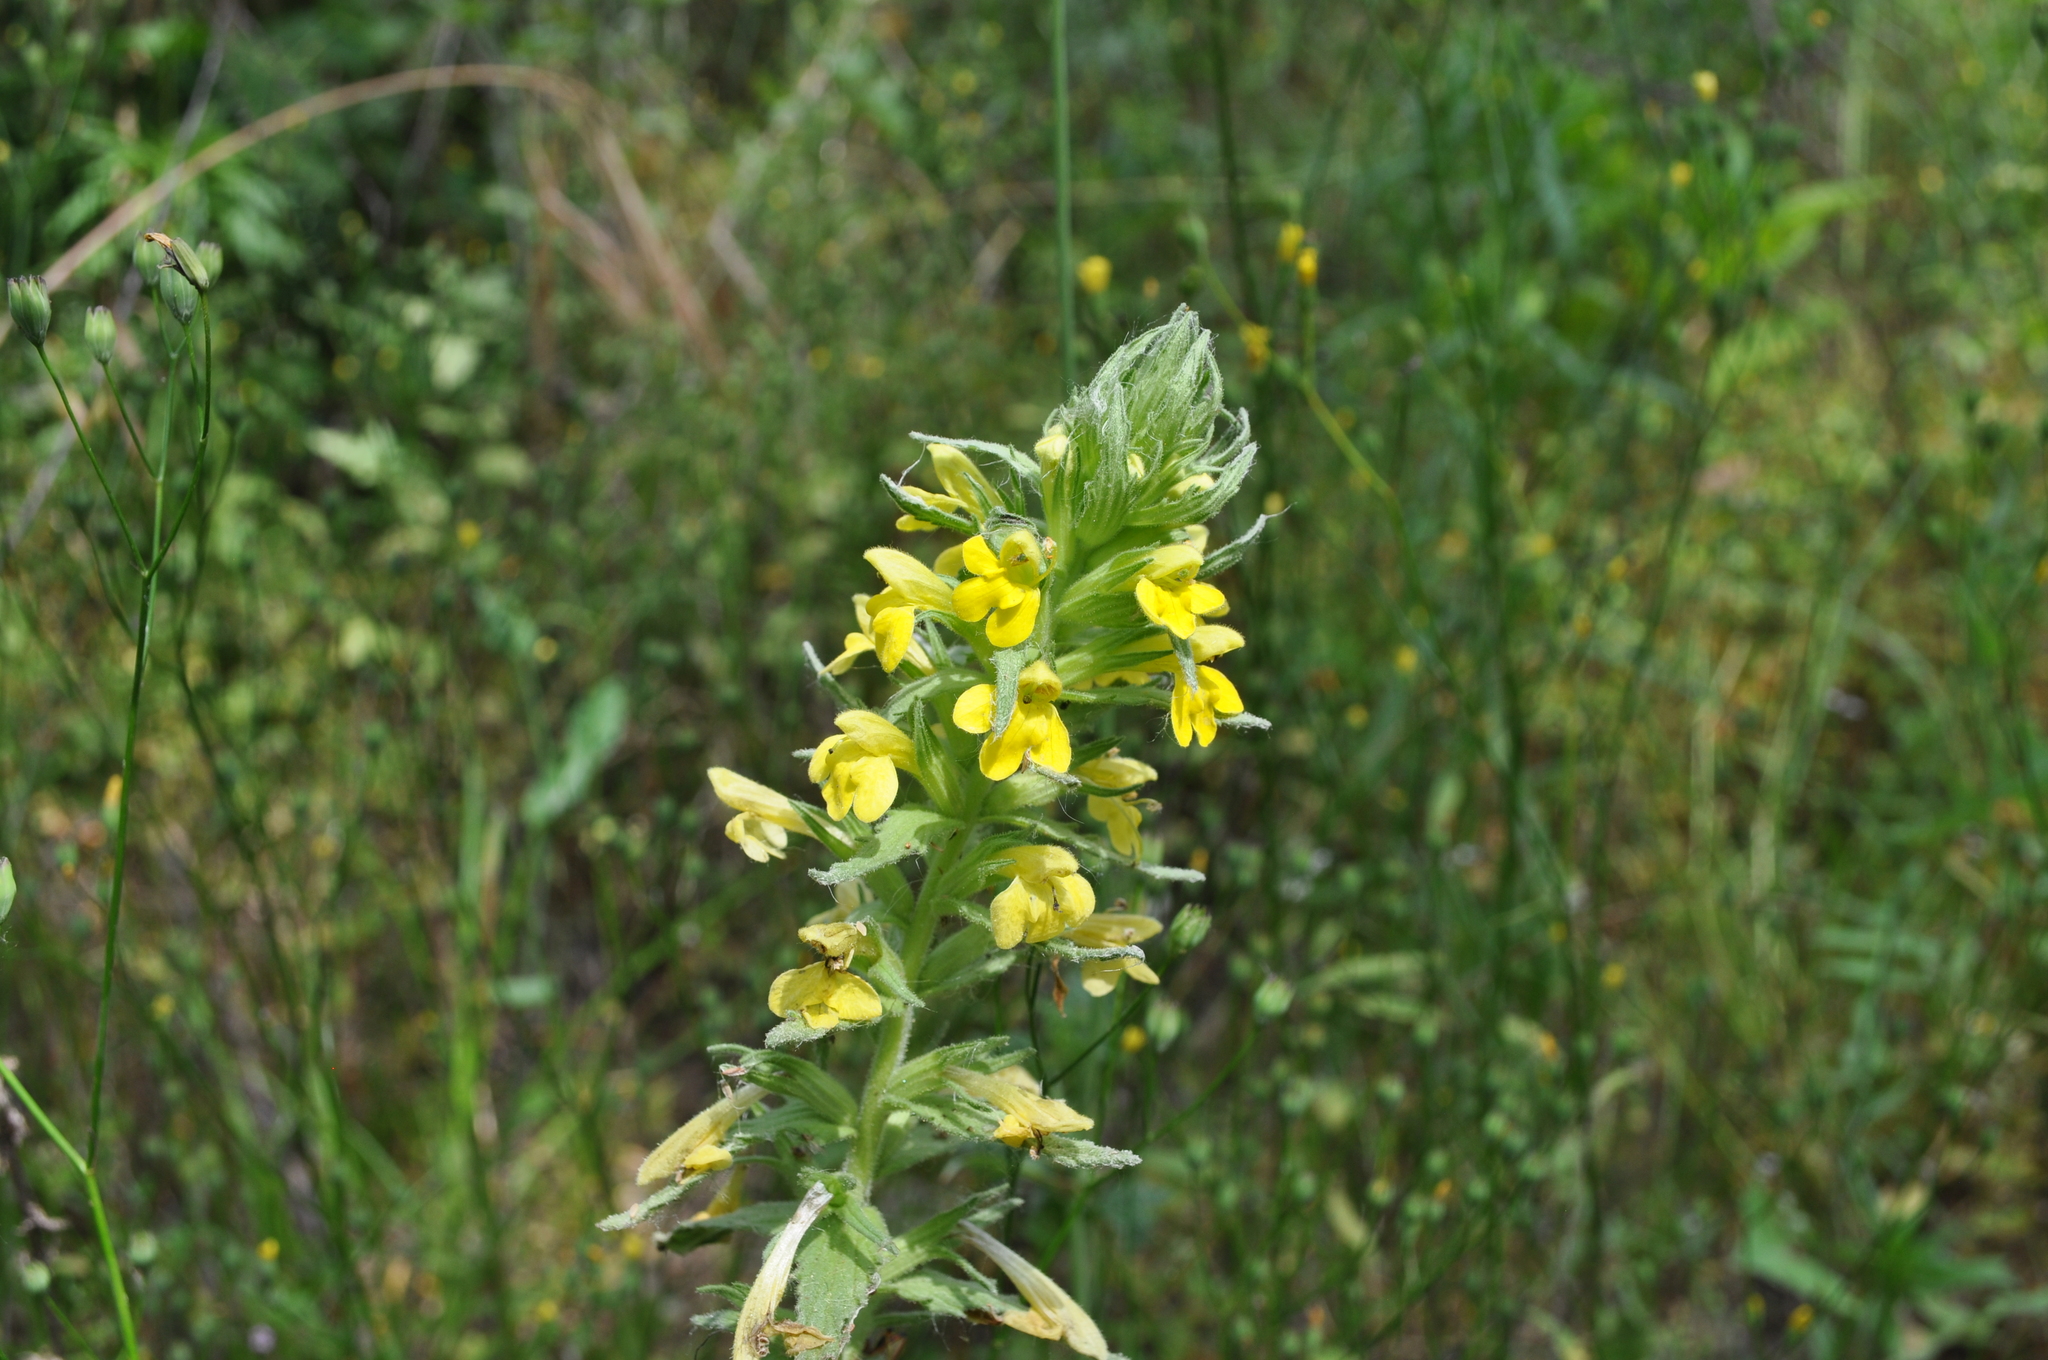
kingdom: Plantae
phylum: Tracheophyta
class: Magnoliopsida
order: Lamiales
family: Orobanchaceae
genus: Bellardia
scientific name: Bellardia viscosa
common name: Sticky parentucellia
